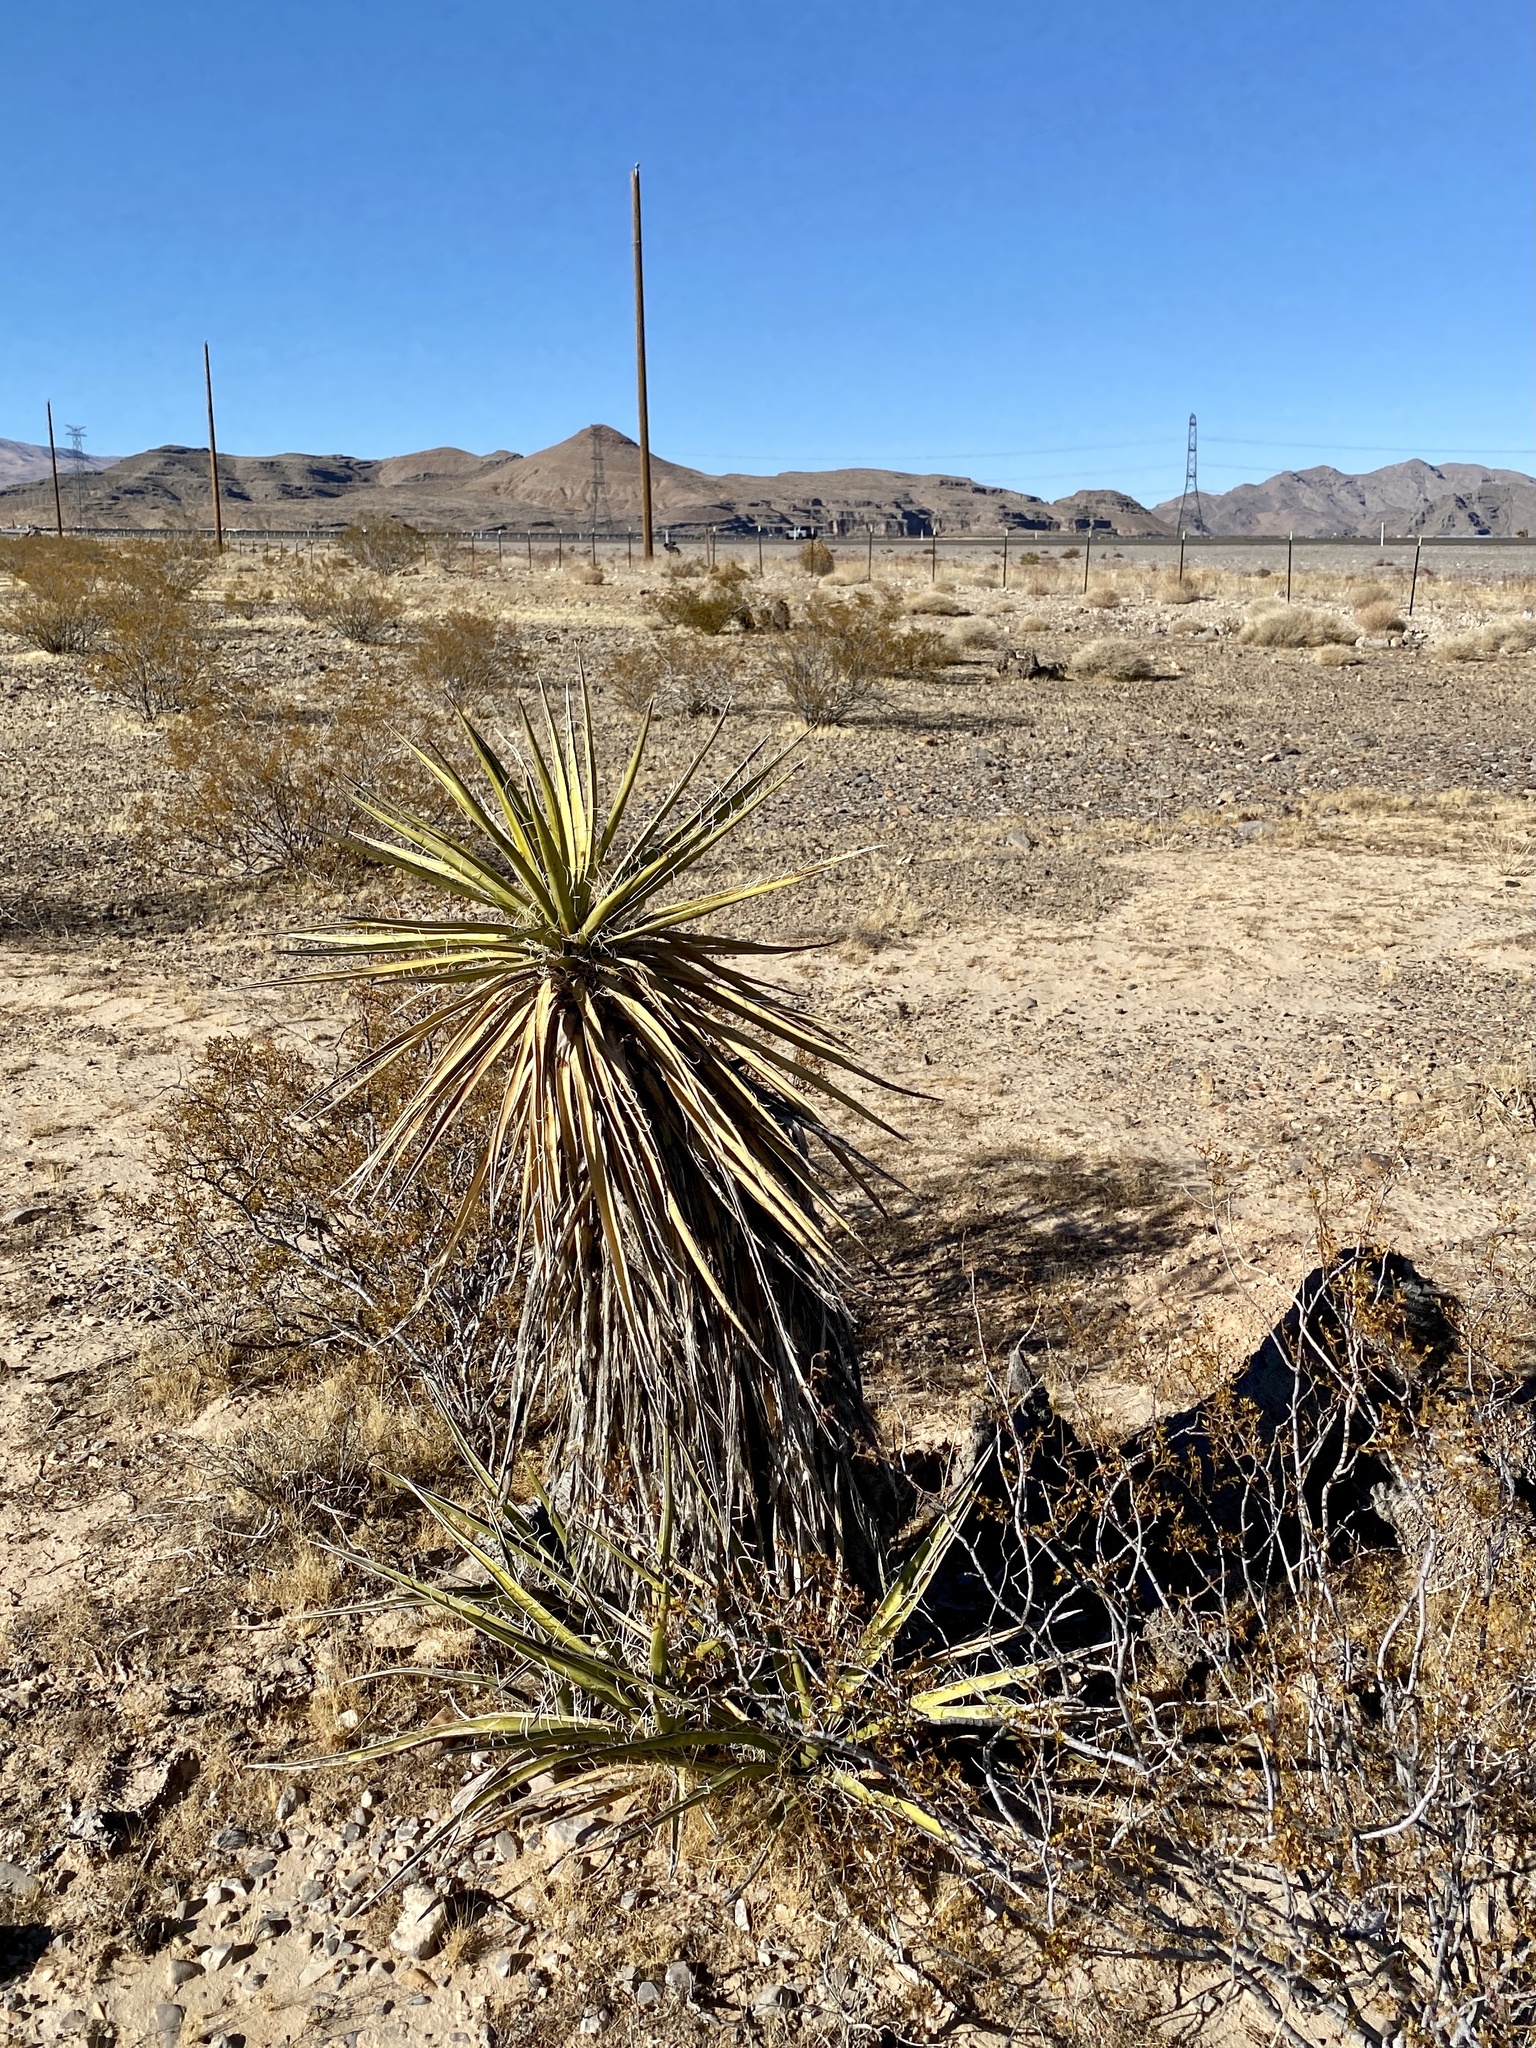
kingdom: Plantae
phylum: Tracheophyta
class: Liliopsida
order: Asparagales
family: Asparagaceae
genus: Yucca
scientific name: Yucca schidigera
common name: Mojave yucca
